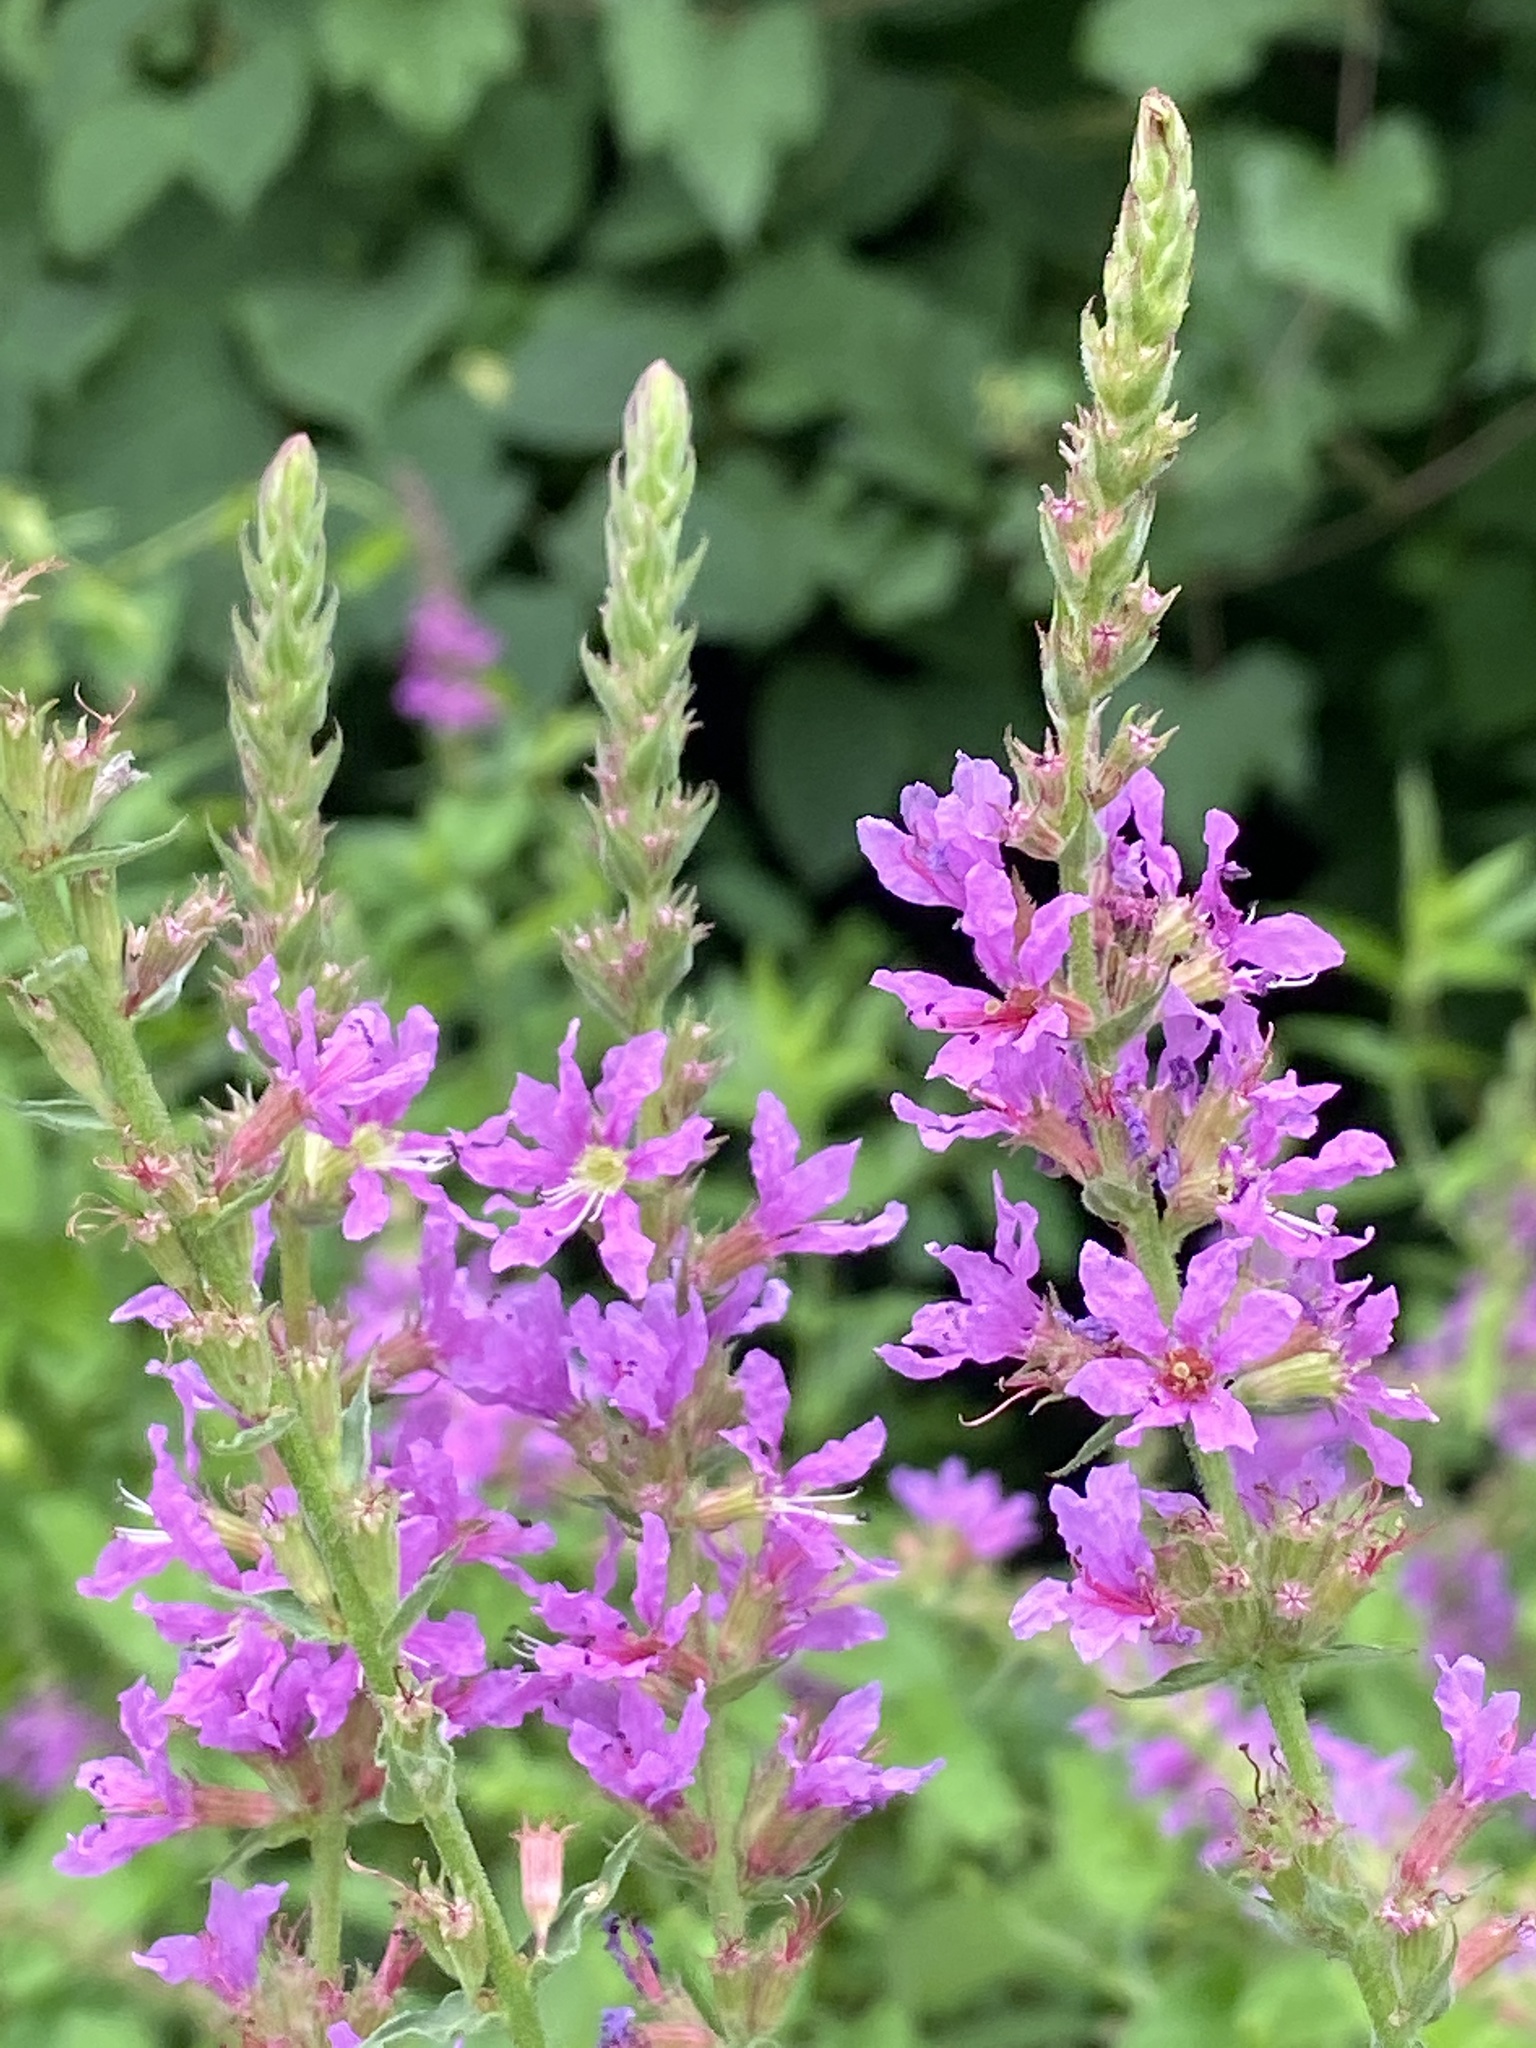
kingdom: Plantae
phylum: Tracheophyta
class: Magnoliopsida
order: Myrtales
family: Lythraceae
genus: Lythrum
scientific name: Lythrum salicaria
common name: Purple loosestrife
